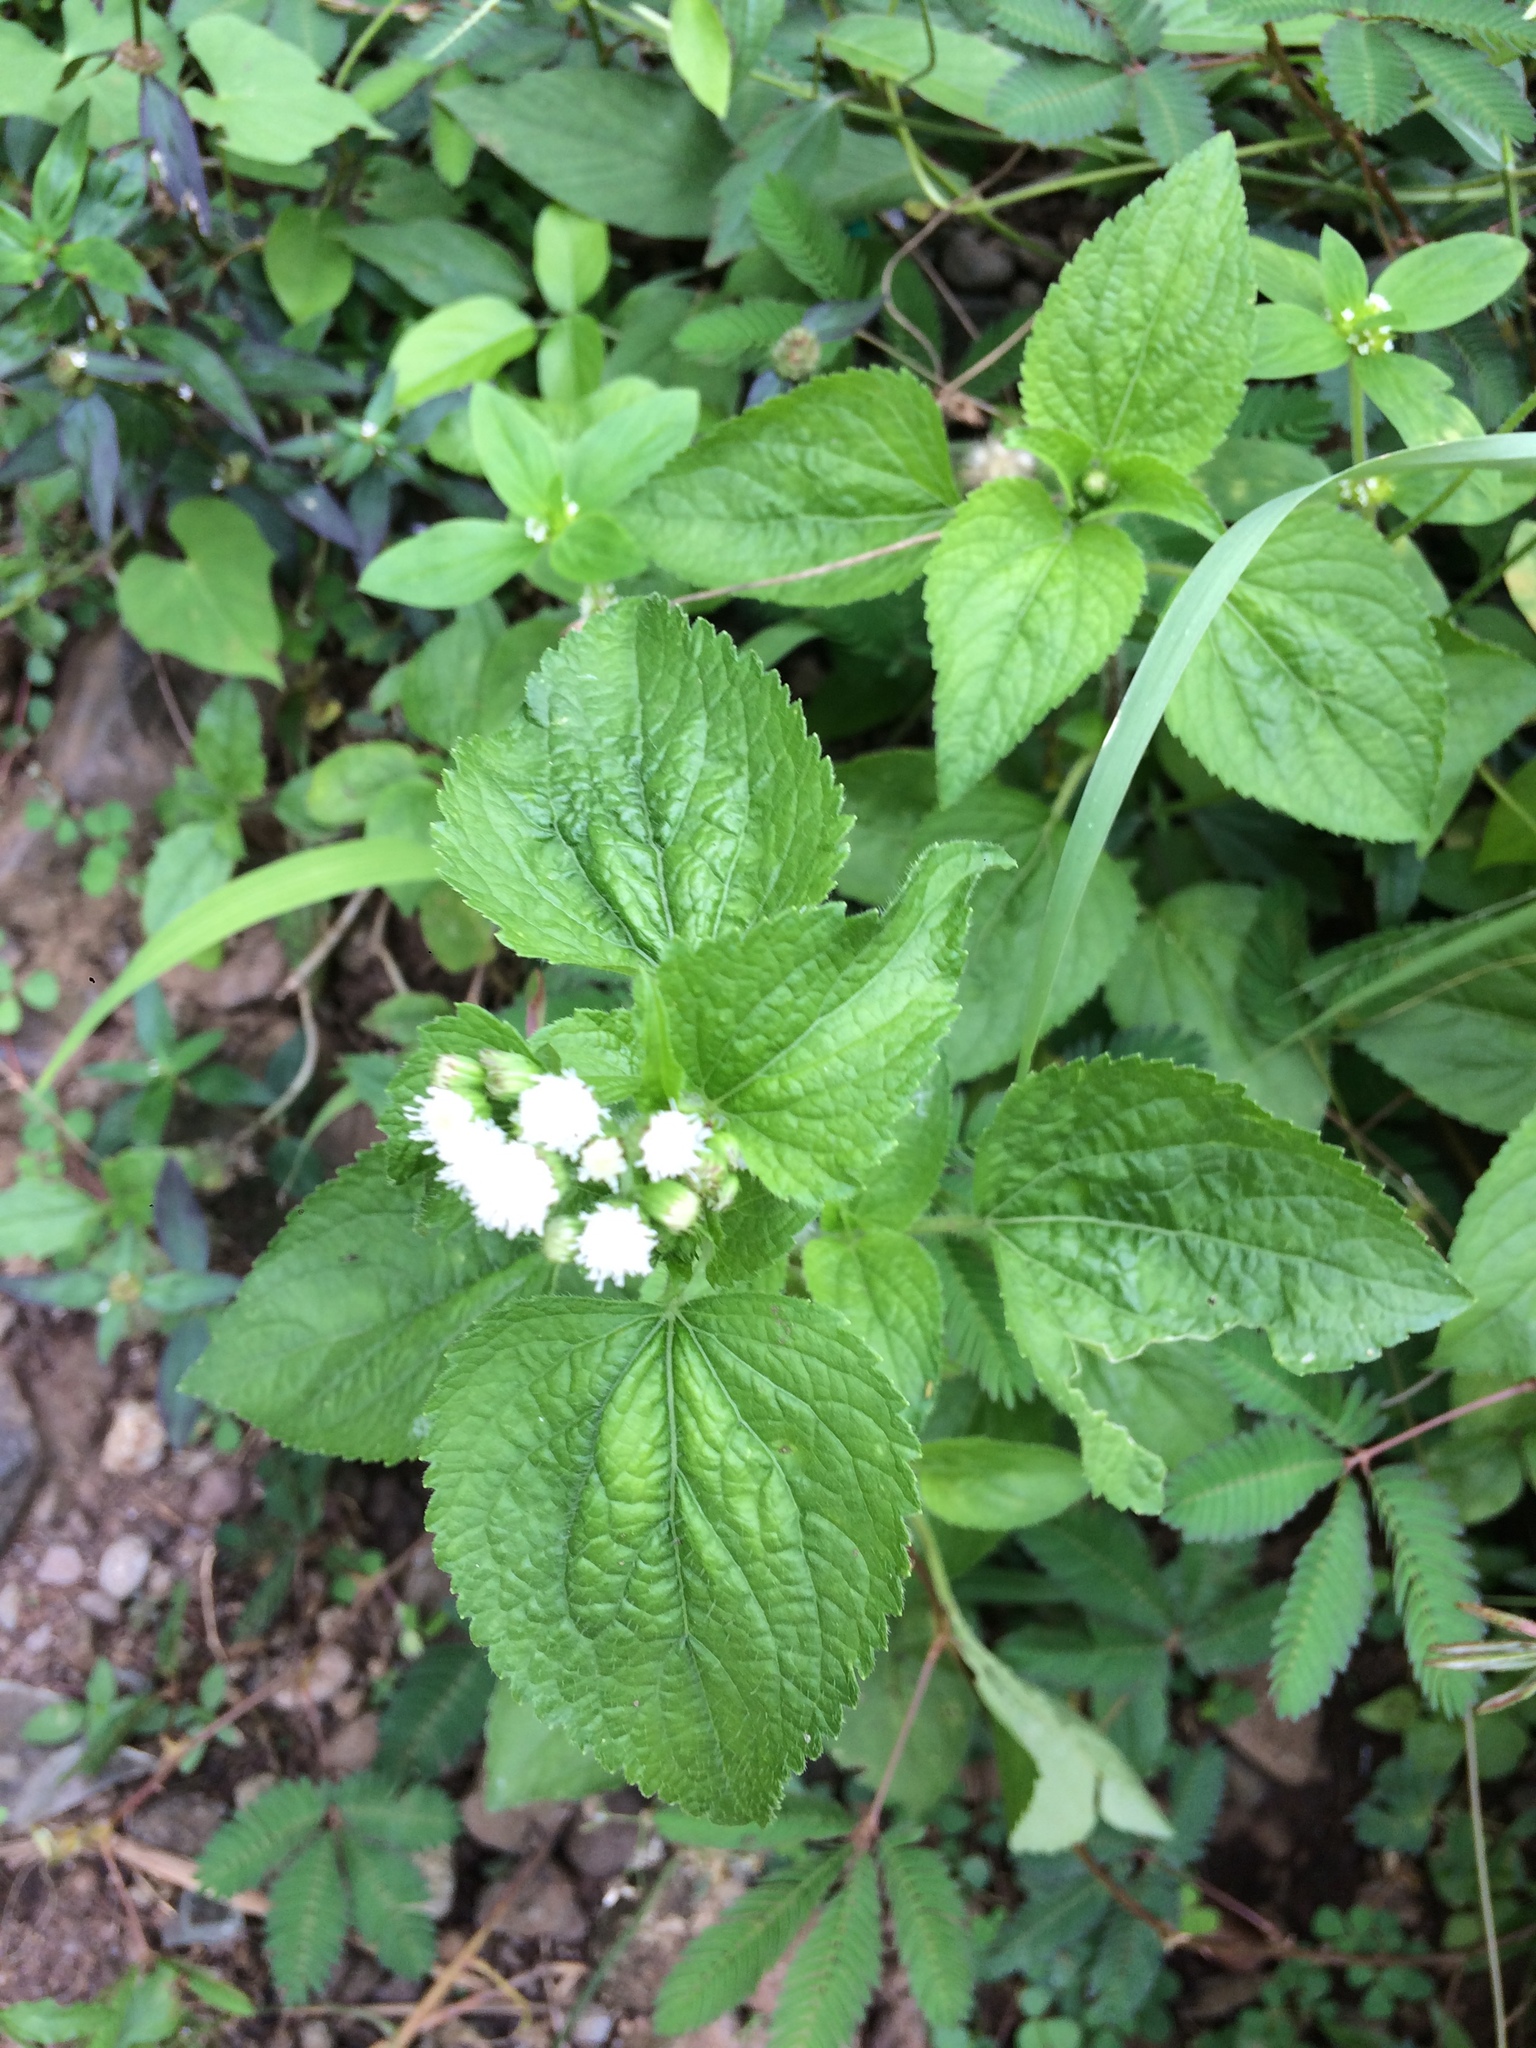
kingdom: Plantae
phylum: Tracheophyta
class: Magnoliopsida
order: Asterales
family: Asteraceae
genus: Ageratum
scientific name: Ageratum conyzoides
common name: Tropical whiteweed
